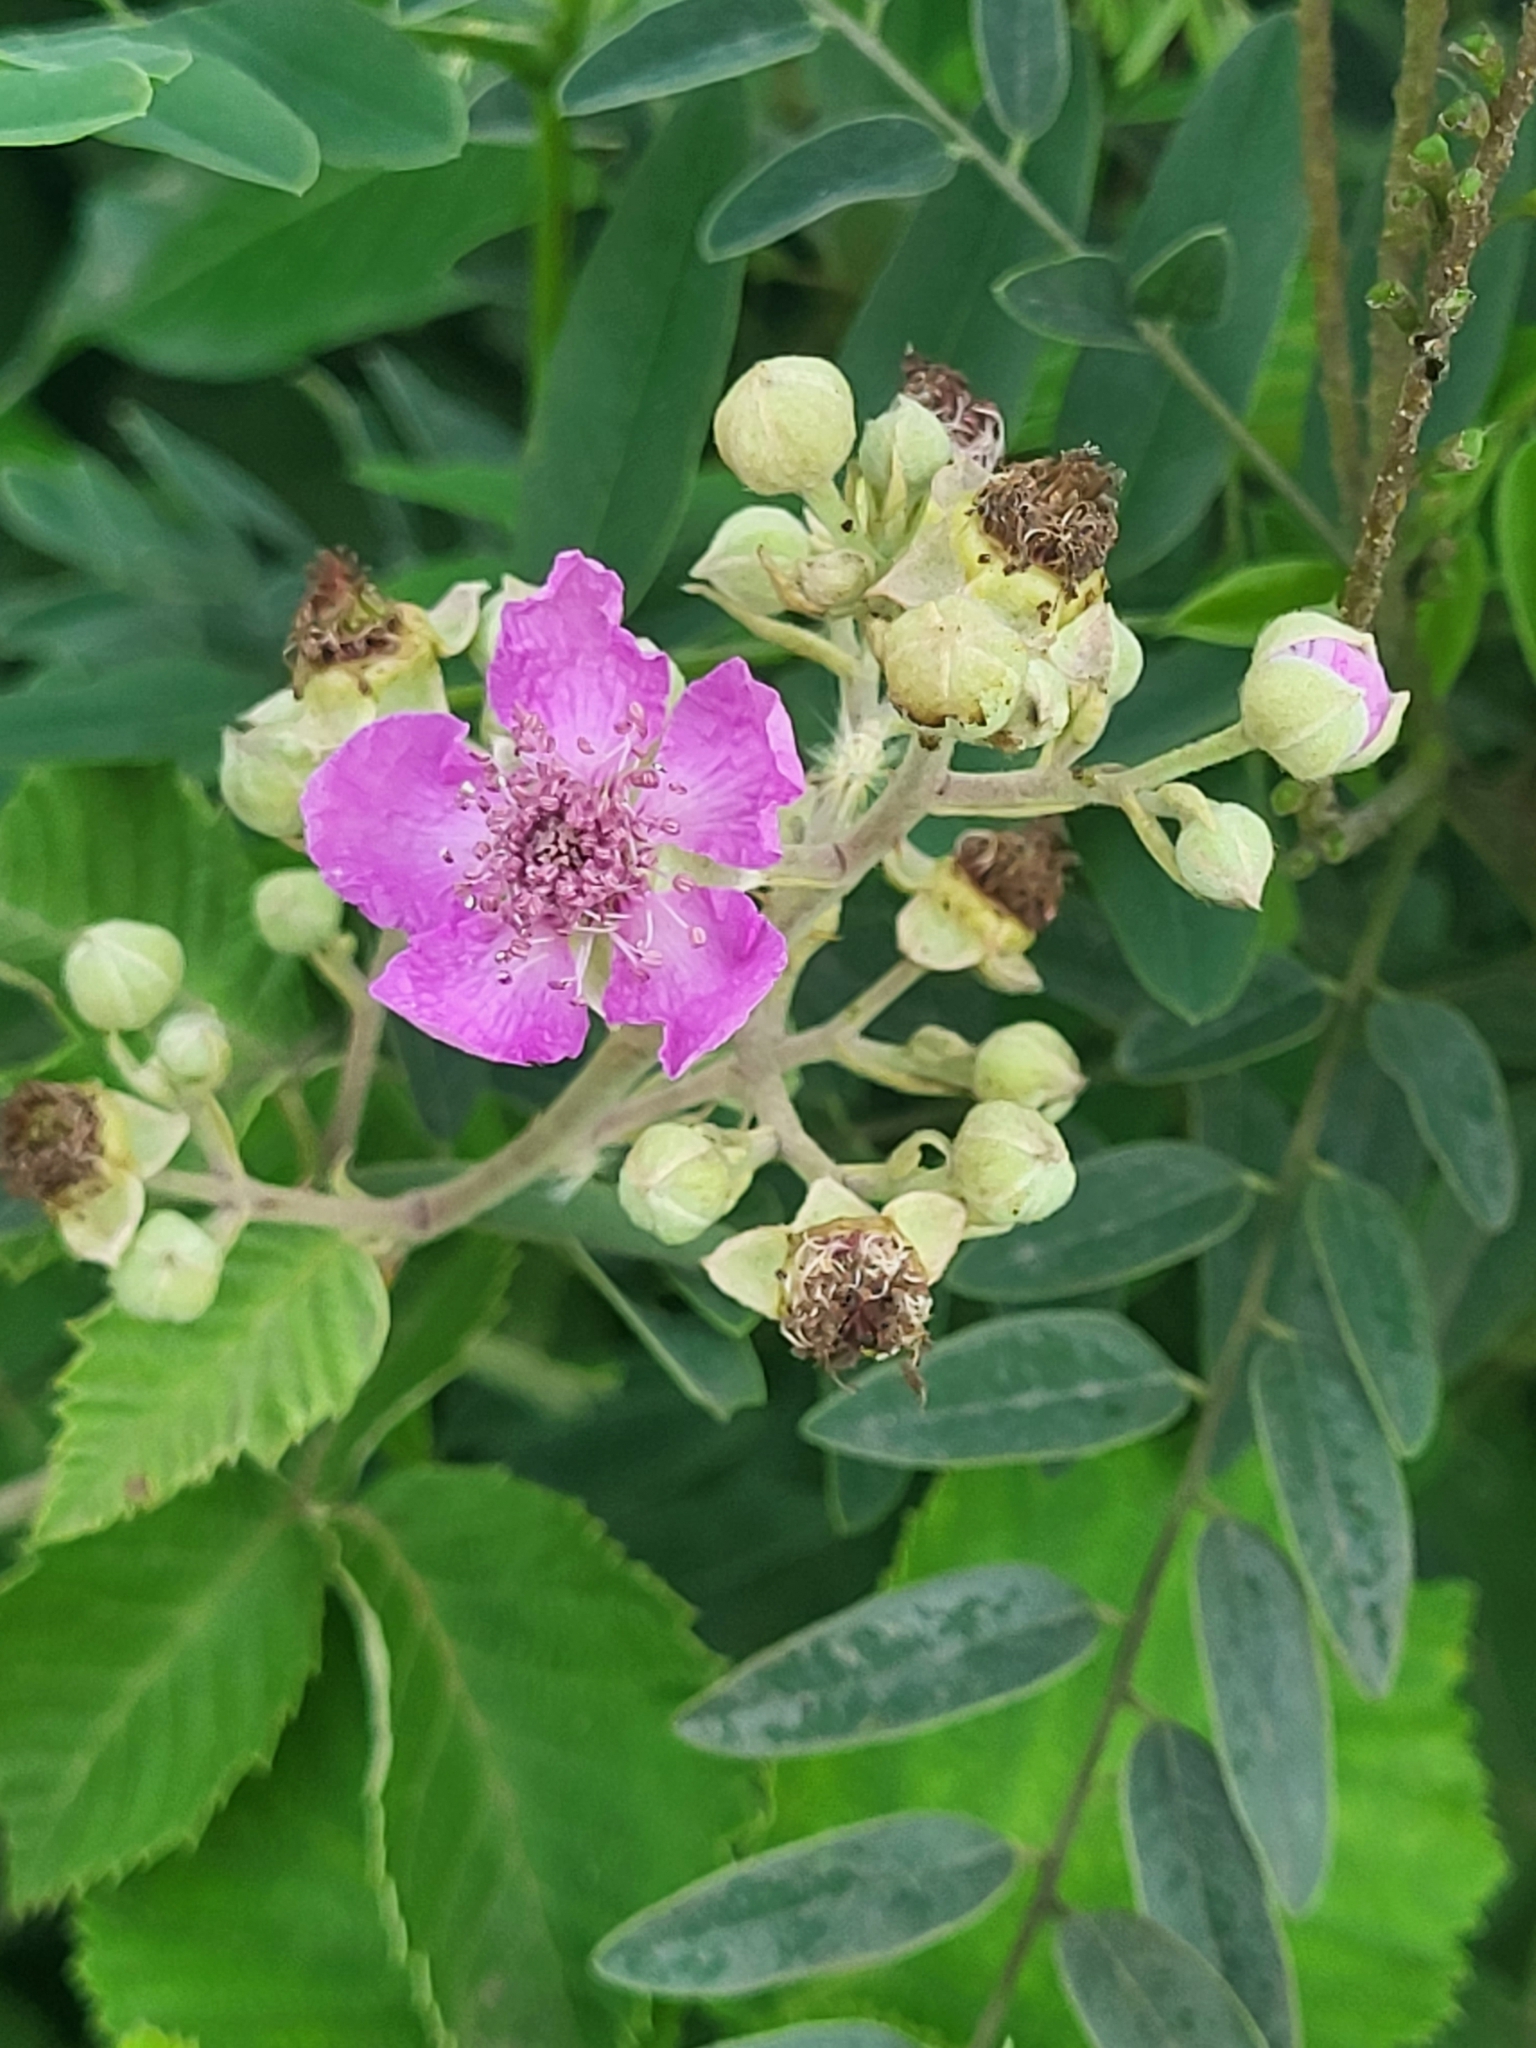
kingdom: Plantae
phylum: Tracheophyta
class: Magnoliopsida
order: Rosales
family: Rosaceae
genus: Rubus
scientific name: Rubus sanctus
